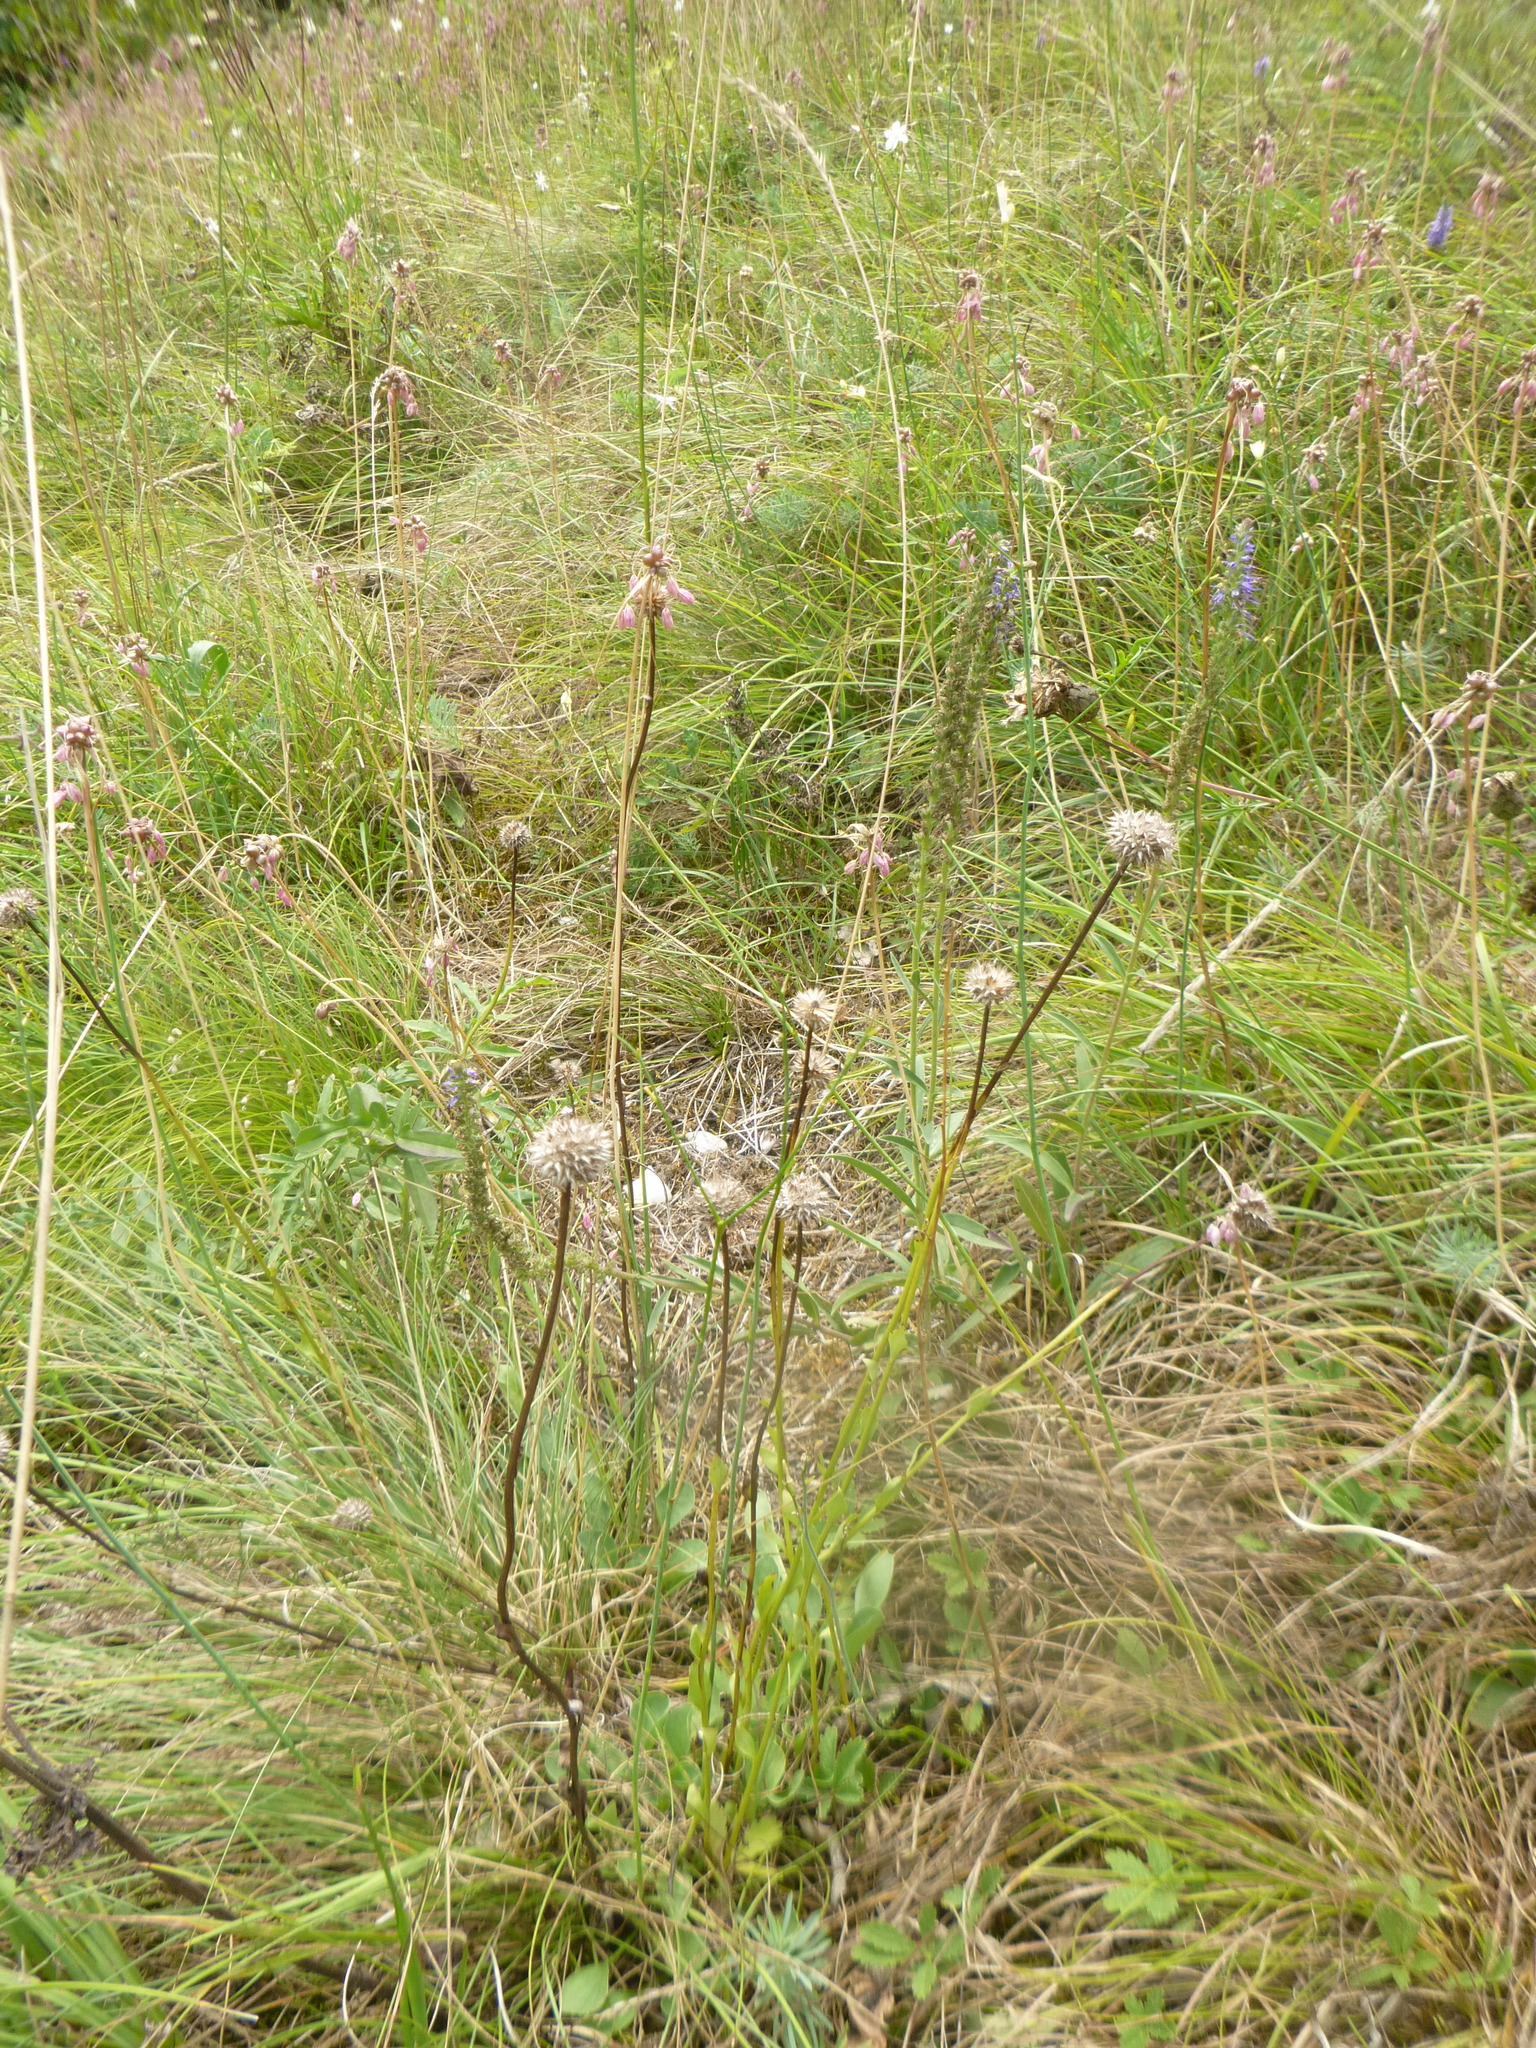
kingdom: Plantae
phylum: Tracheophyta
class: Magnoliopsida
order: Lamiales
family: Plantaginaceae
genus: Globularia
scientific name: Globularia bisnagarica
